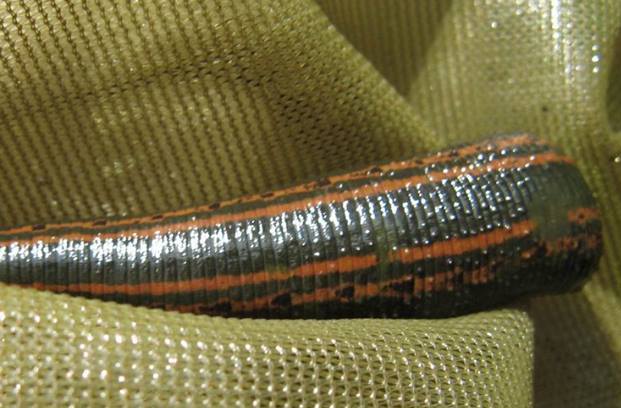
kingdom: Animalia
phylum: Annelida
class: Clitellata
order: Arhynchobdellida
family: Hirudinidae
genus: Hirudo
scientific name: Hirudo medicinalis
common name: Medicinal leech
